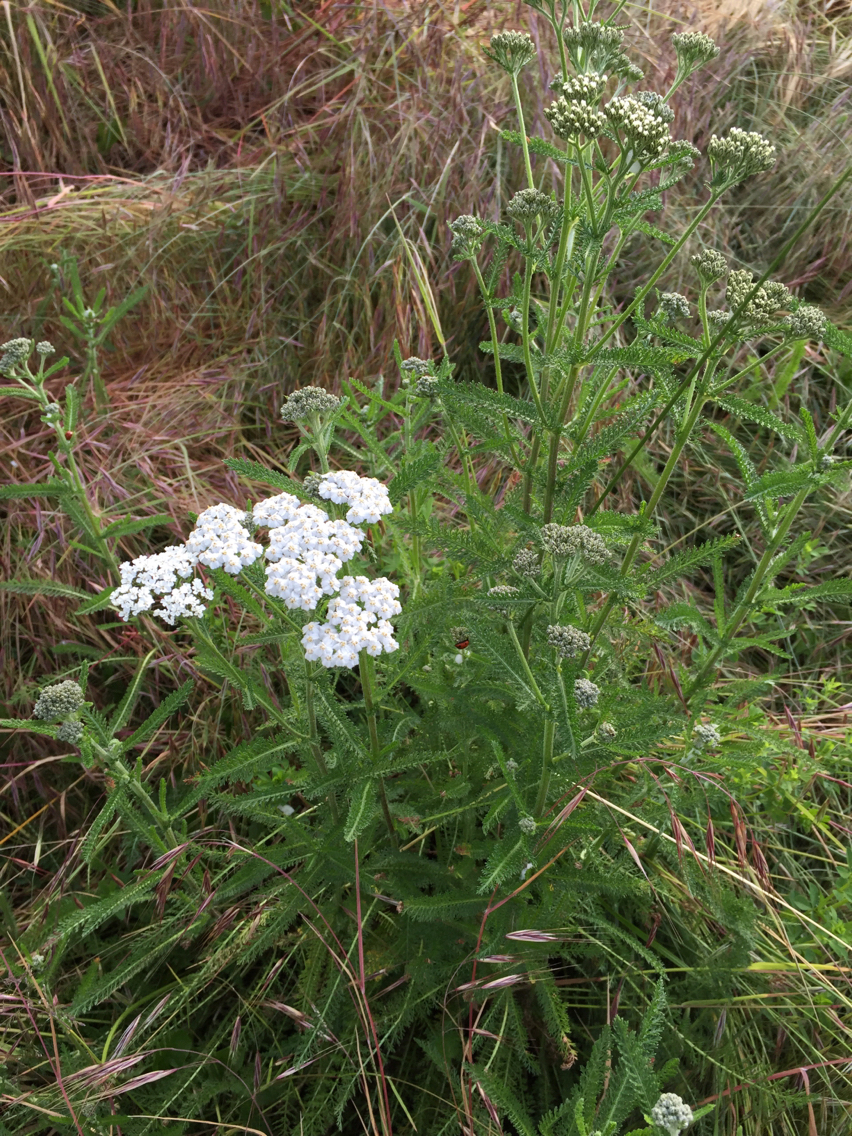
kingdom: Plantae
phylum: Tracheophyta
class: Magnoliopsida
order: Asterales
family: Asteraceae
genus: Achillea
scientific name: Achillea millefolium
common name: Yarrow
